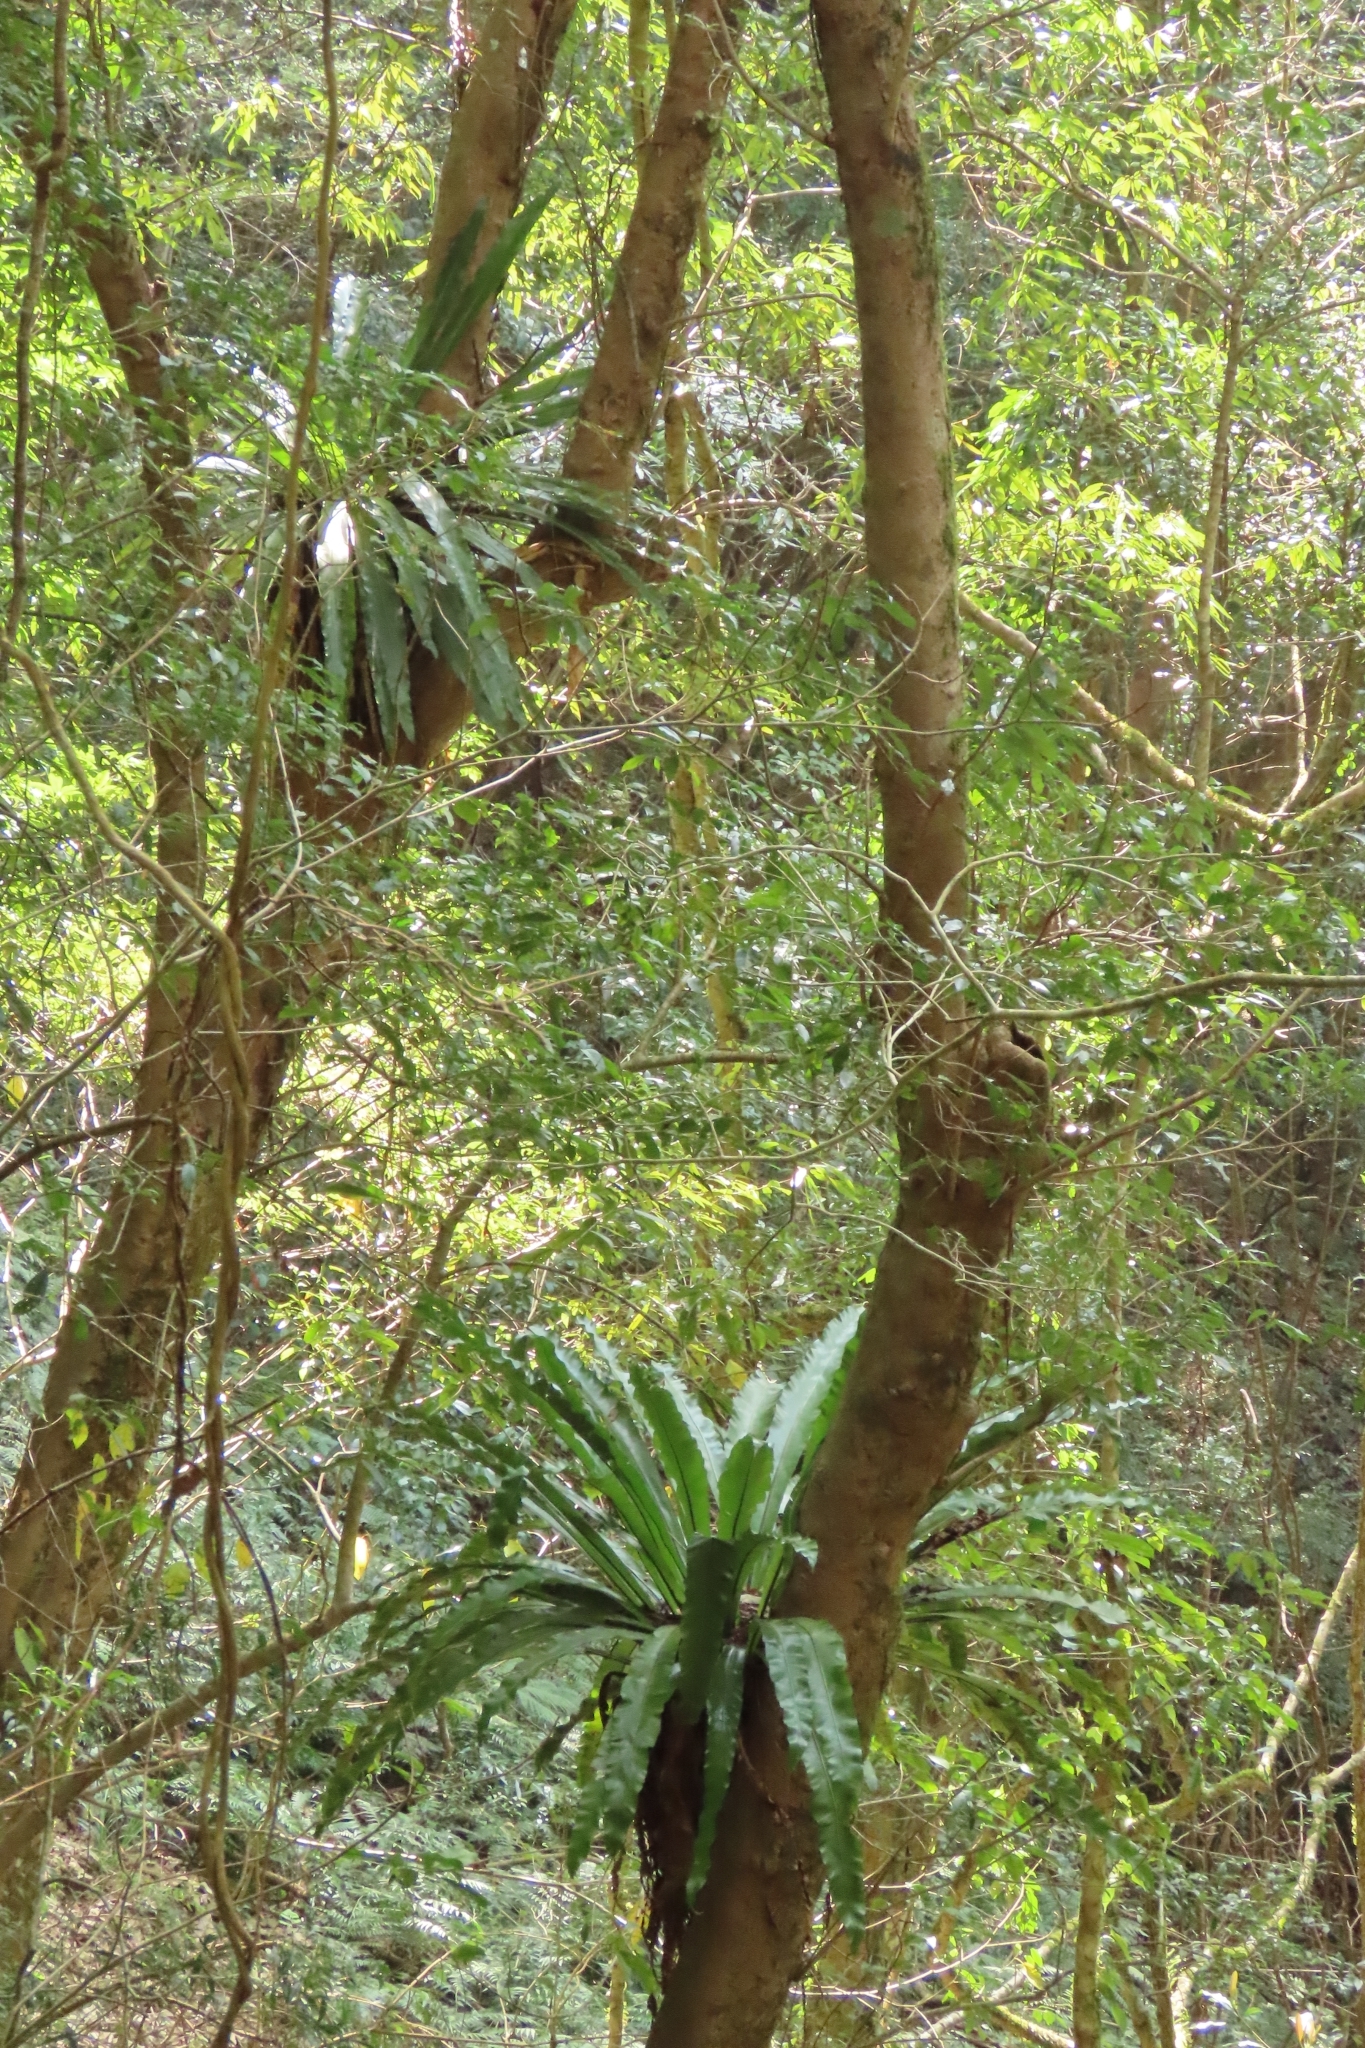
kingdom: Plantae
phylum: Tracheophyta
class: Polypodiopsida
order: Polypodiales
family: Aspleniaceae
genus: Asplenium
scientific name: Asplenium nidus
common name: Bird's-nest fern
